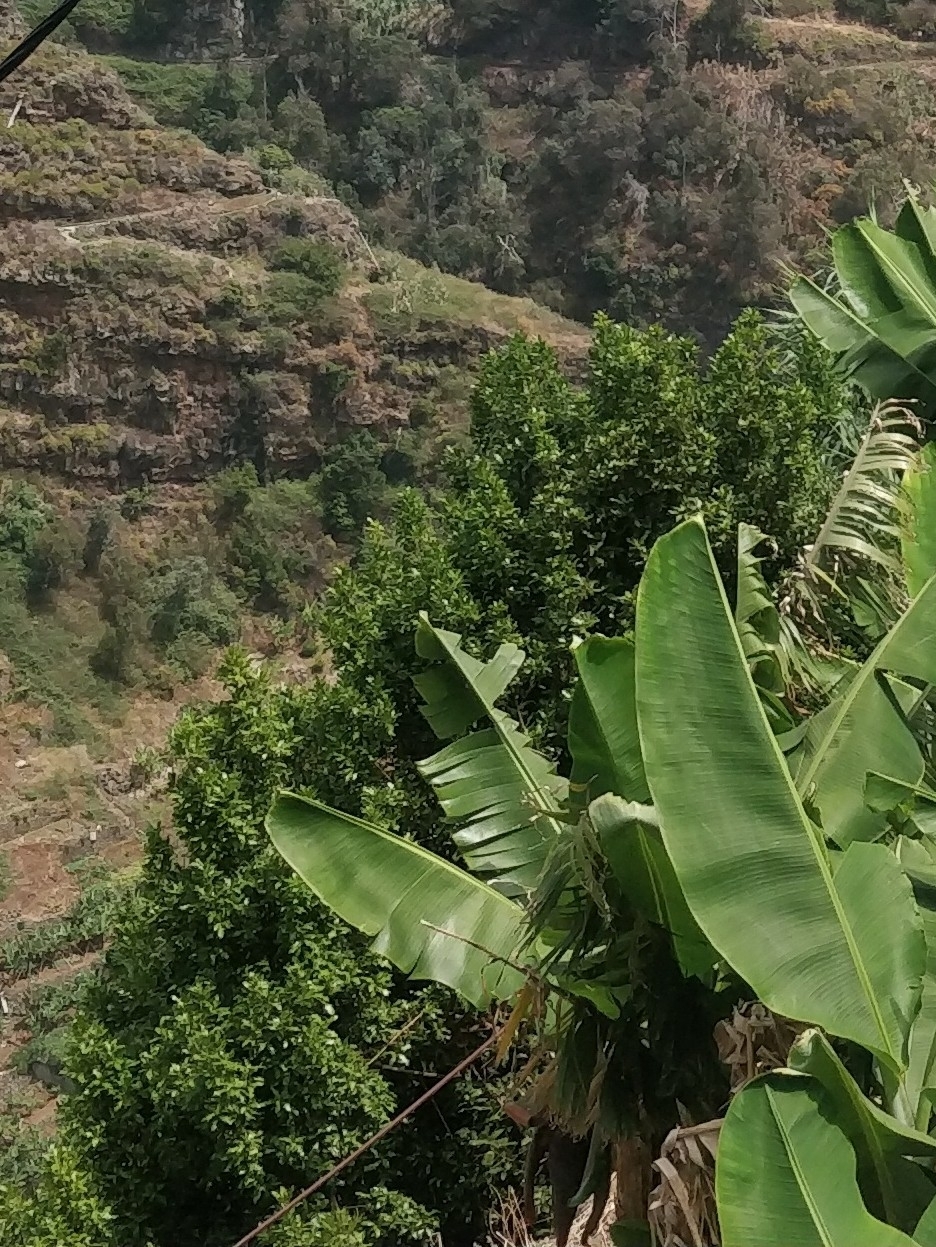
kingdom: Plantae
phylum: Tracheophyta
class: Magnoliopsida
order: Laurales
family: Lauraceae
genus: Apollonias
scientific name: Apollonias barbujana
